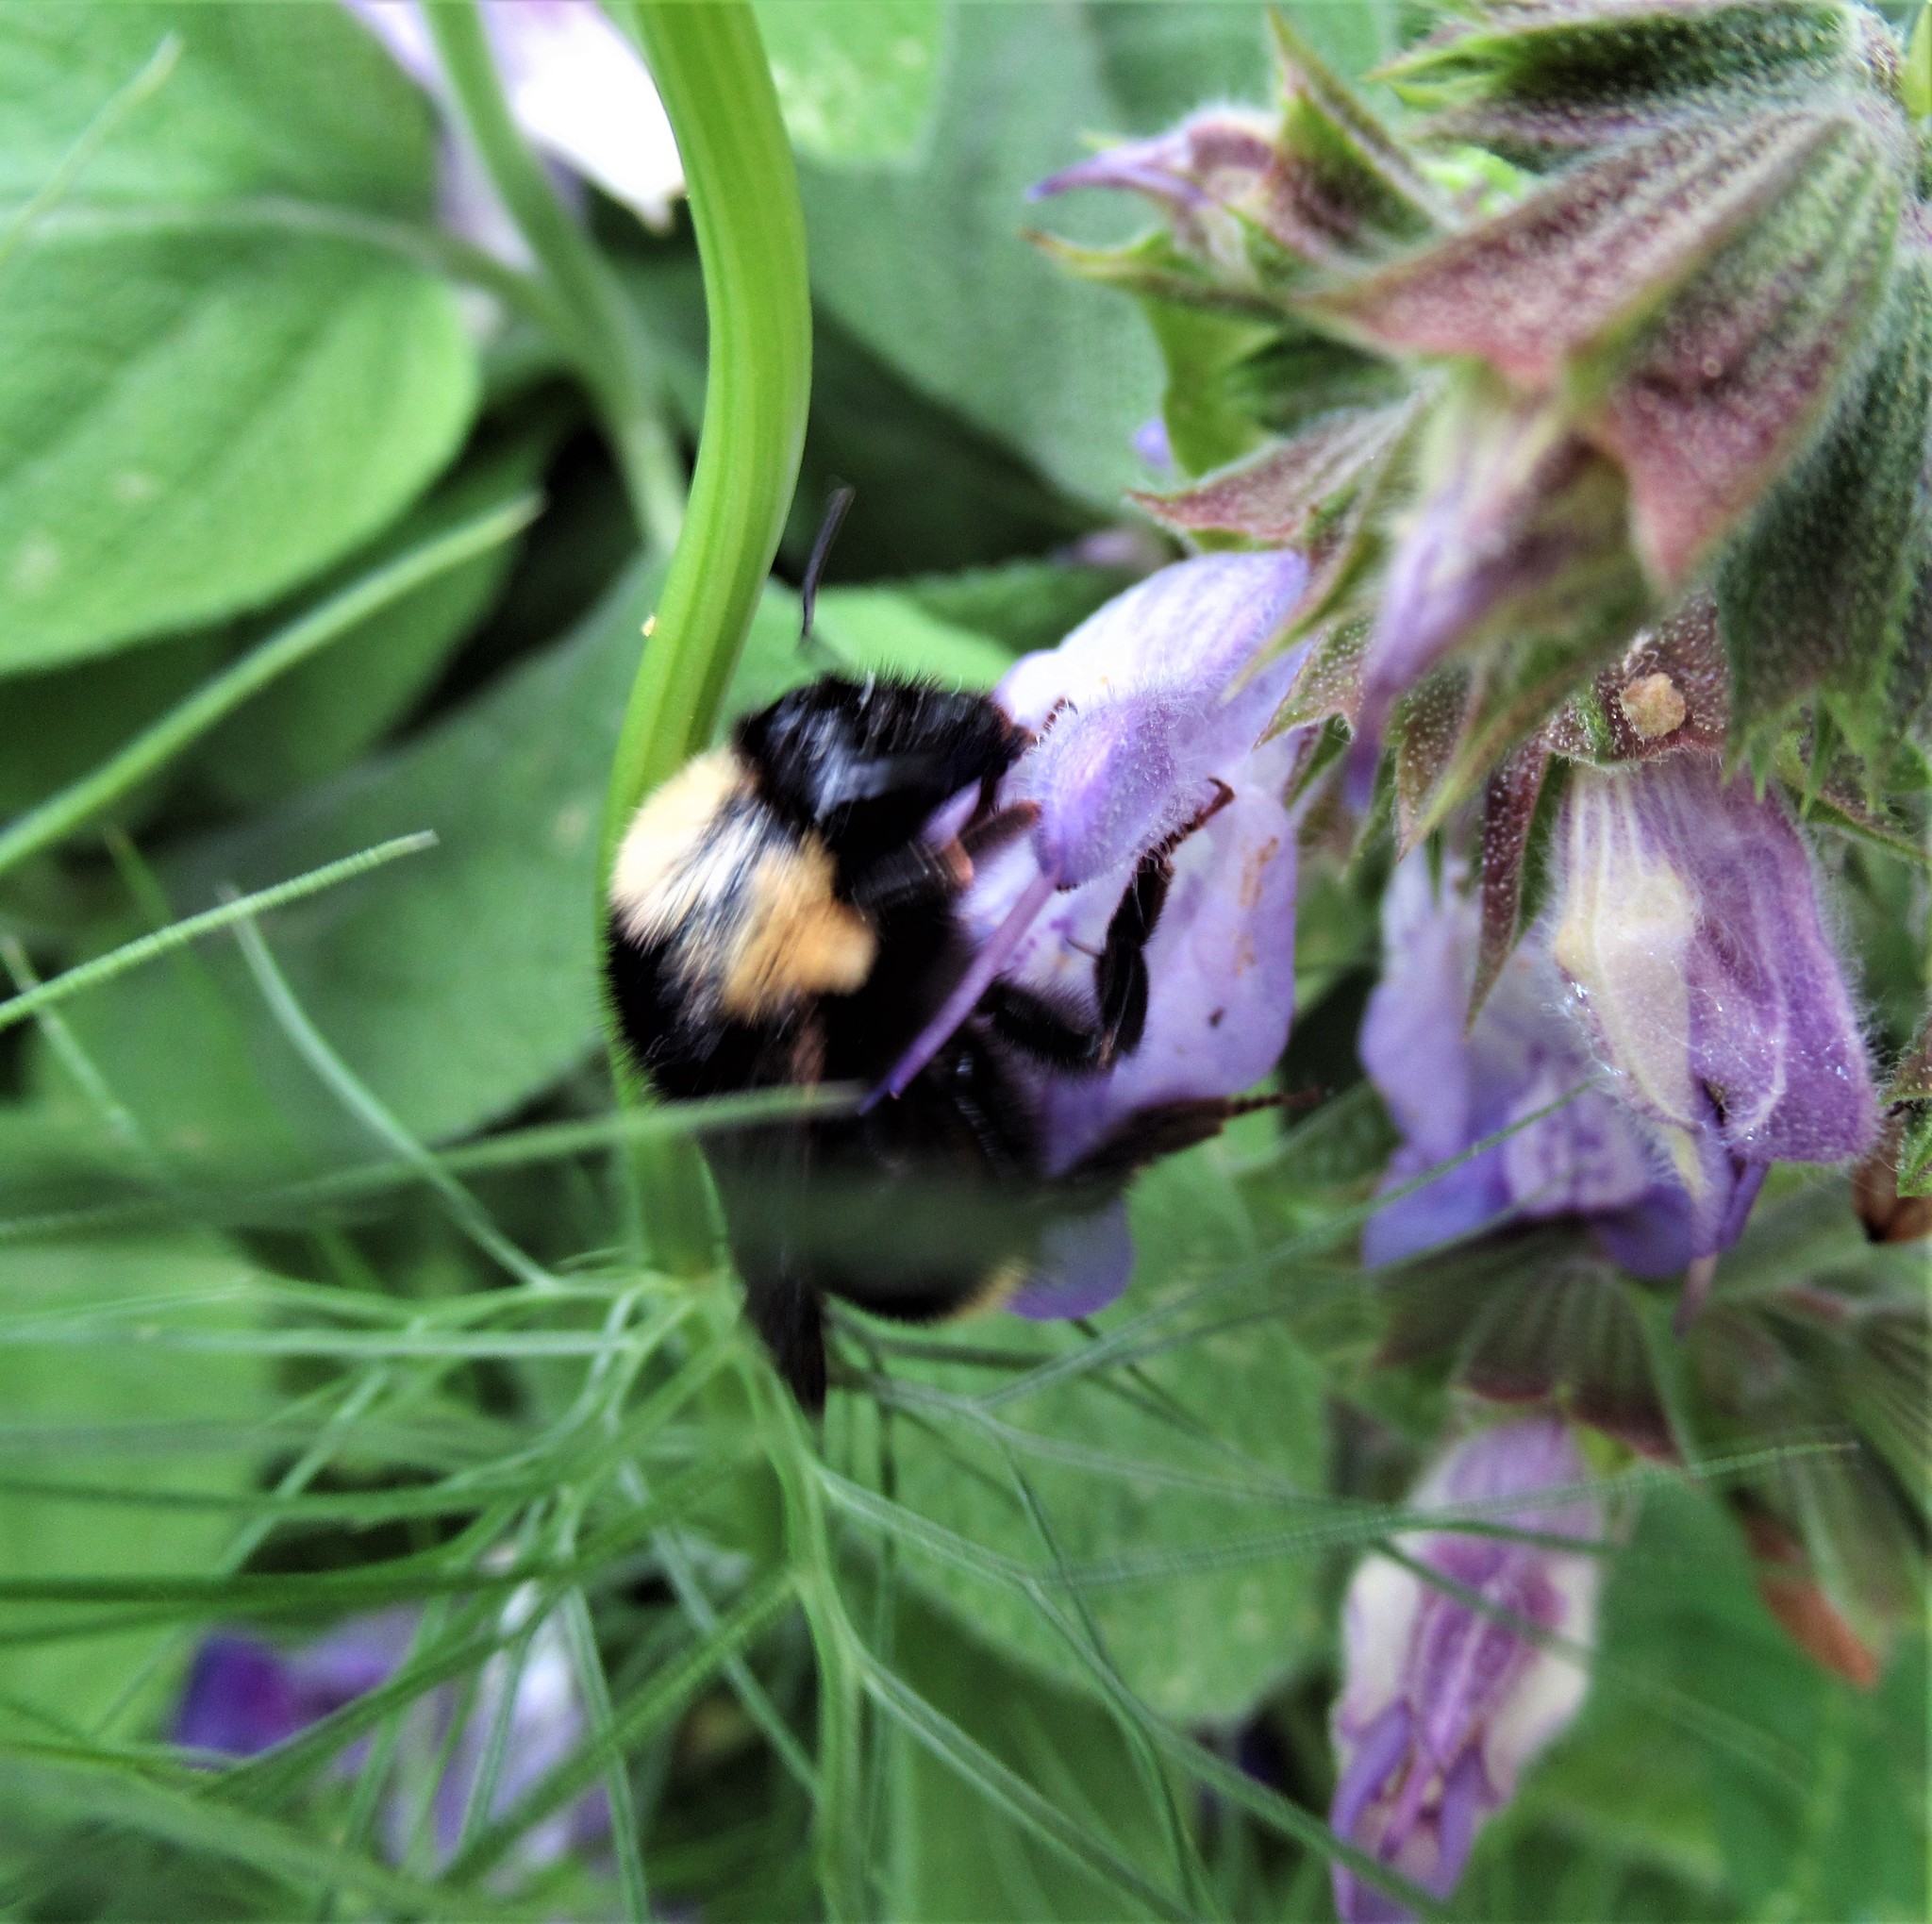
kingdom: Animalia
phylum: Arthropoda
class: Insecta
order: Hymenoptera
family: Apidae
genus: Bombus
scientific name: Bombus californicus
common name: California bumble bee
